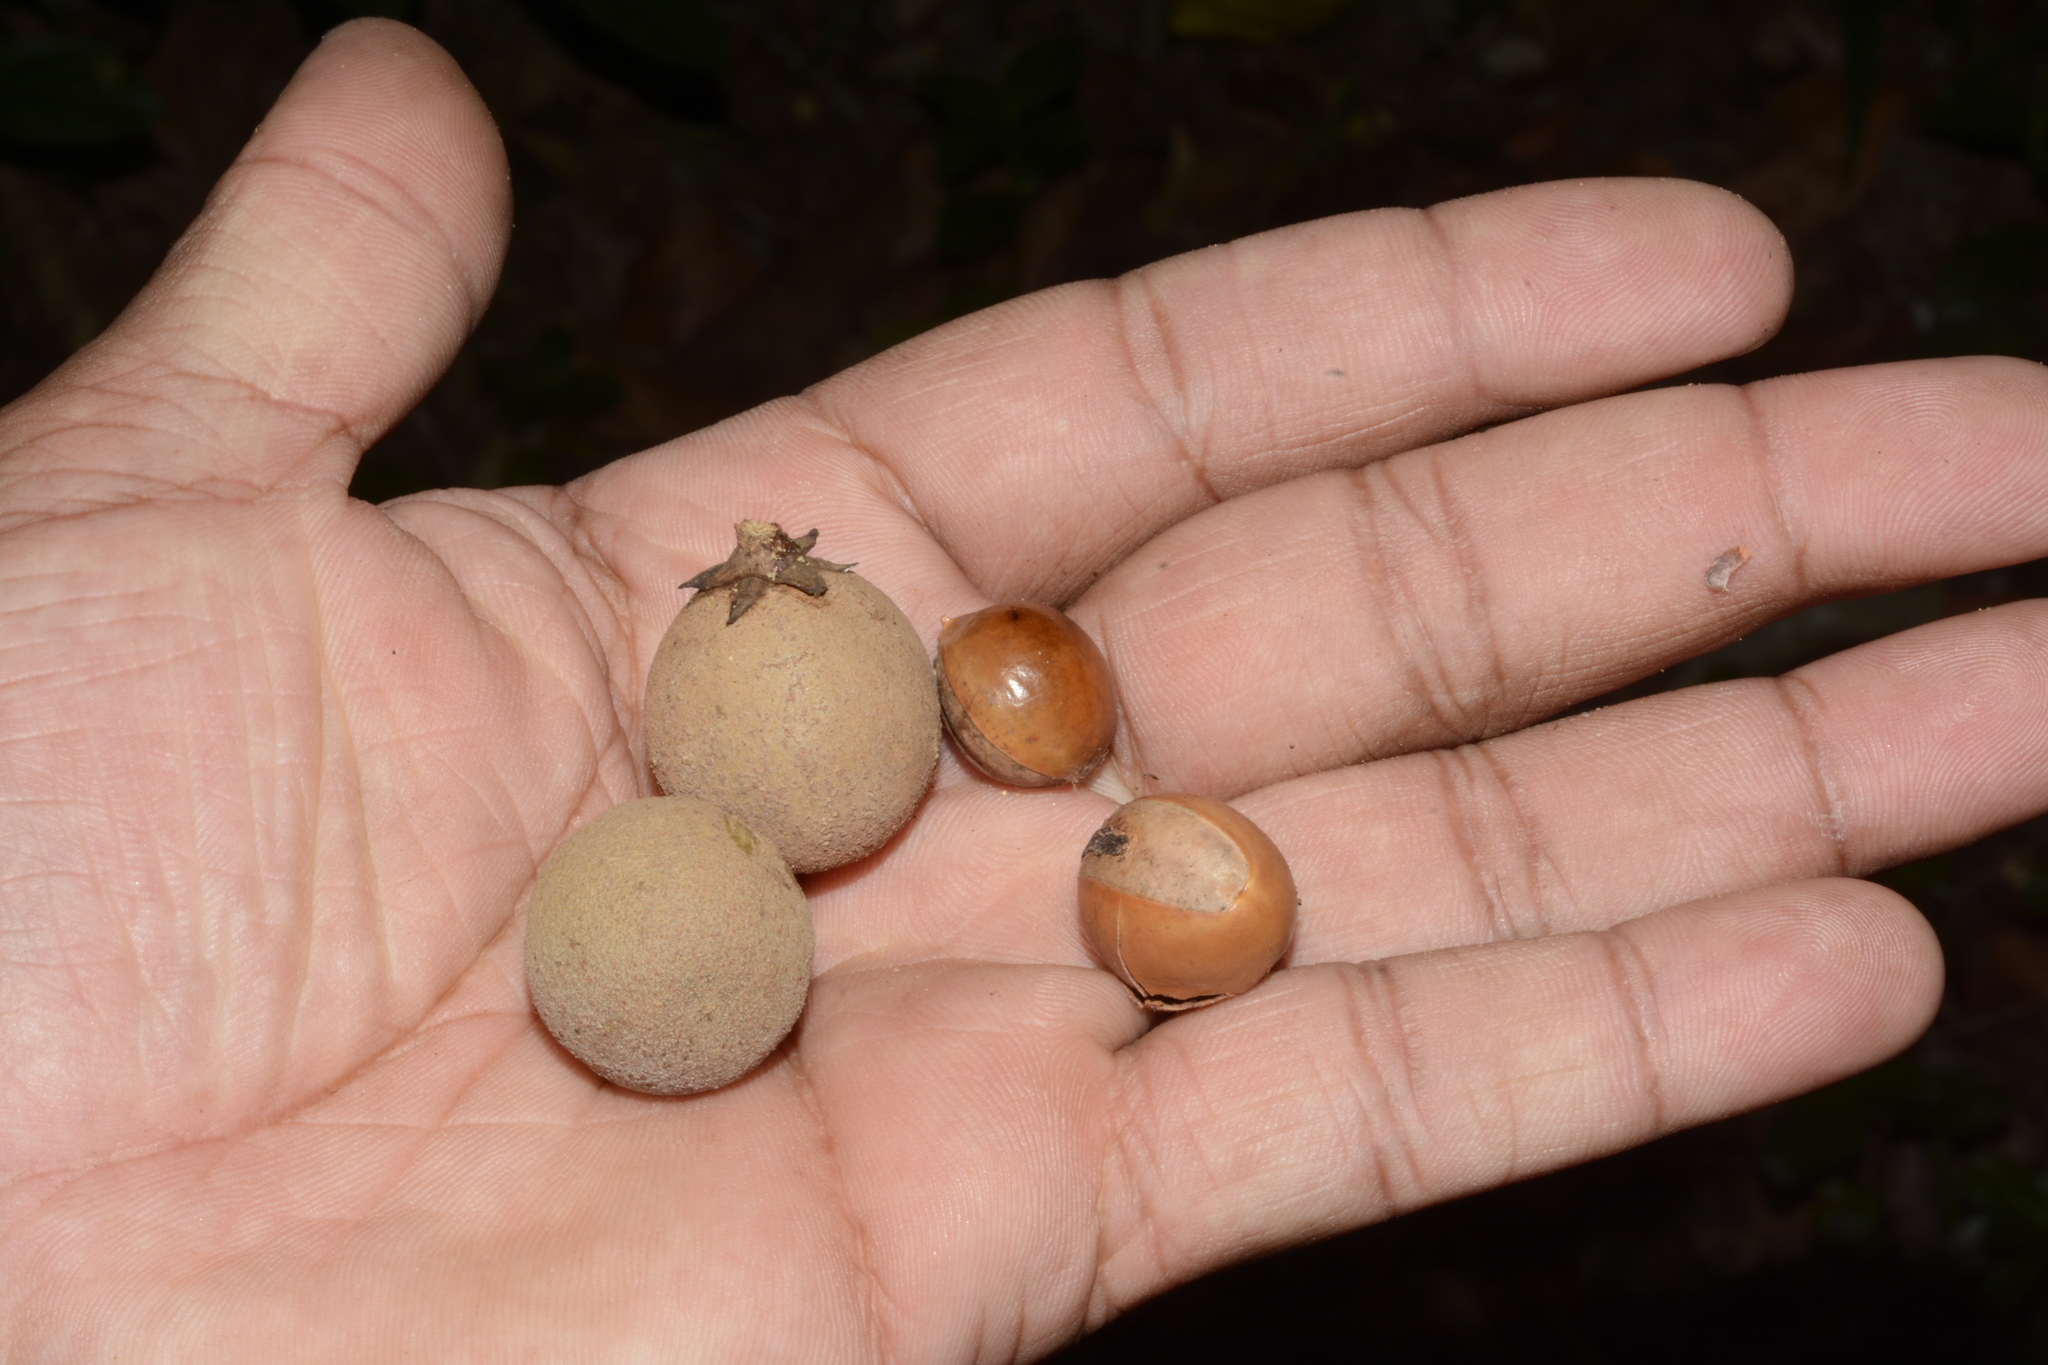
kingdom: Plantae
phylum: Tracheophyta
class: Magnoliopsida
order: Ericales
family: Sapotaceae
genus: Palaquium
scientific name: Palaquium ravii
